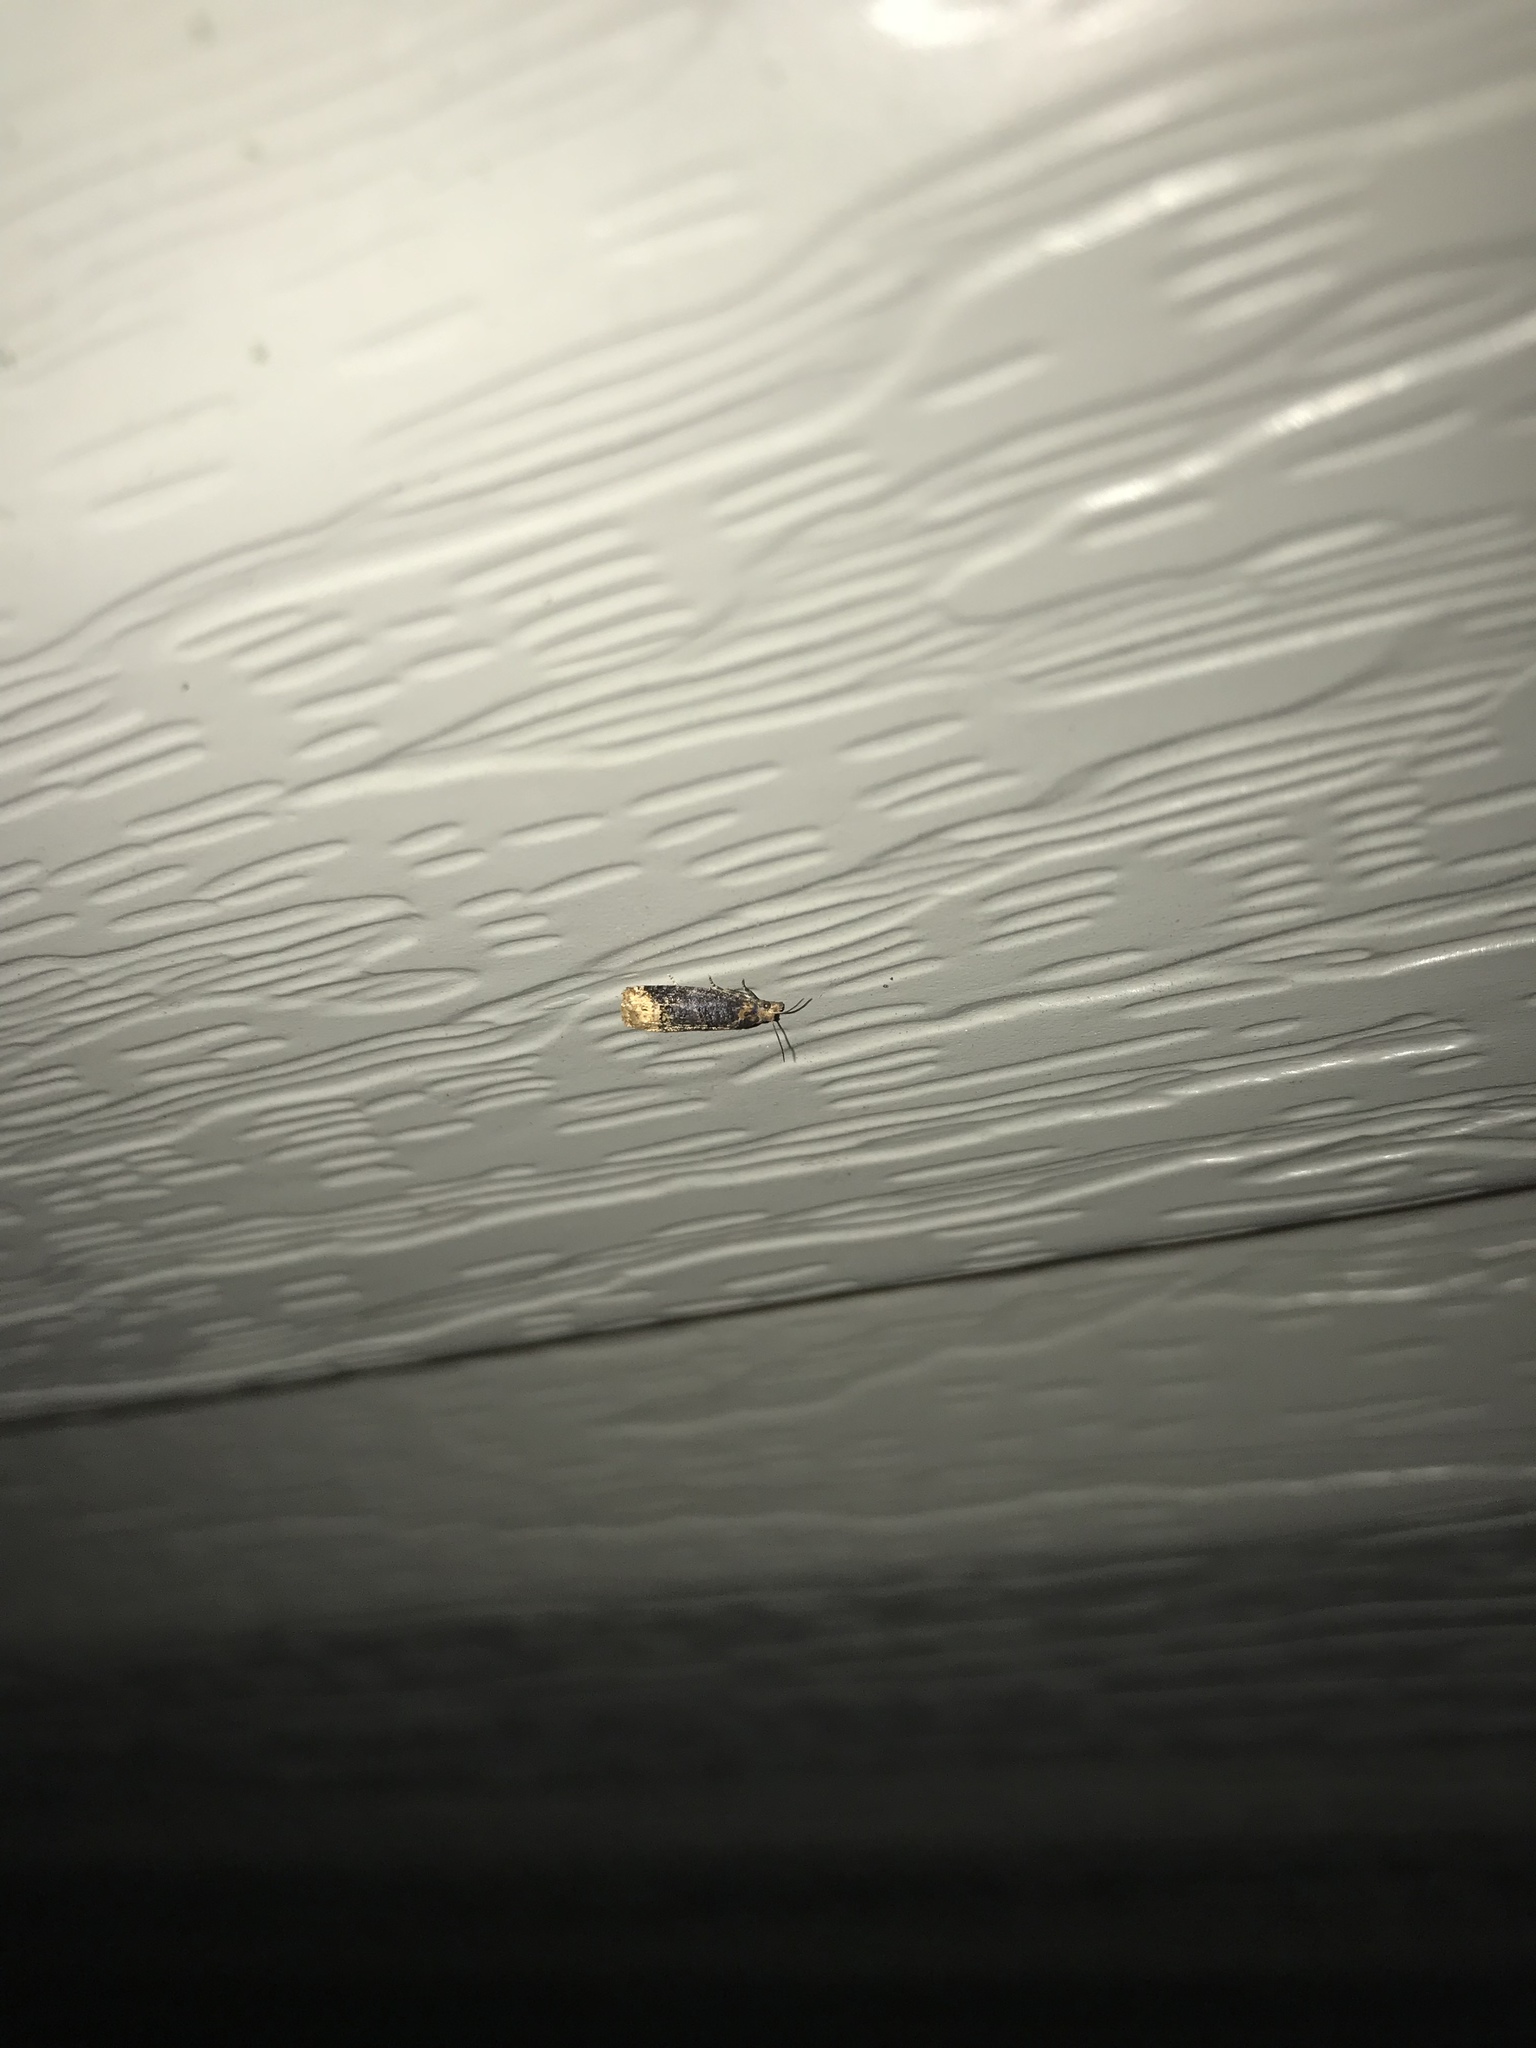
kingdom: Animalia
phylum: Arthropoda
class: Insecta
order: Lepidoptera
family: Tortricidae
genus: Eucosma
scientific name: Eucosma ochroterminana
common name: Buff-tipped eucosma moth
